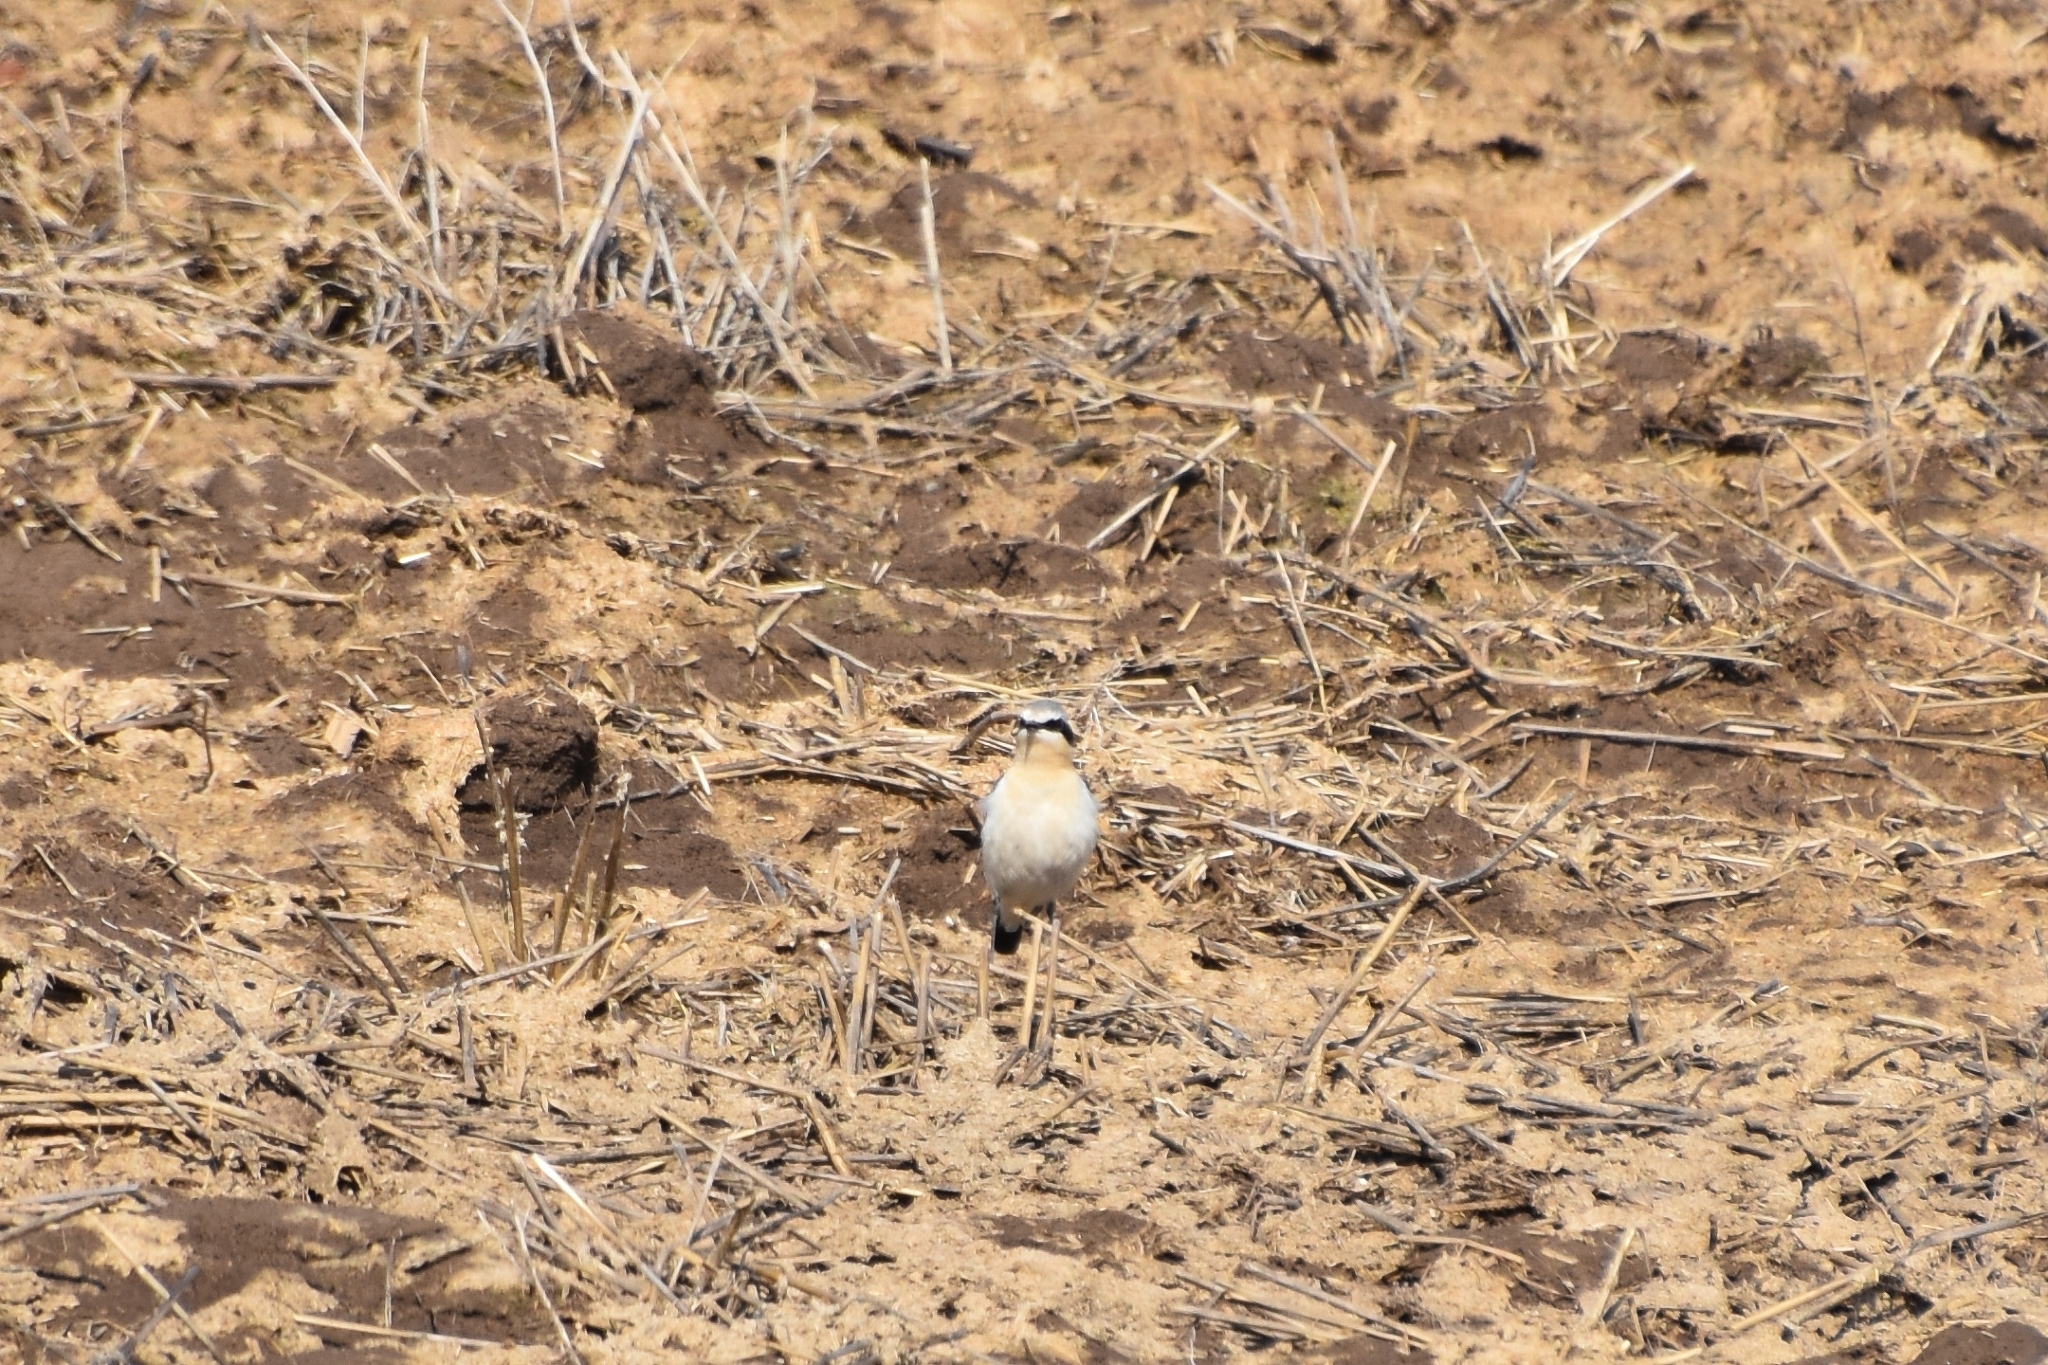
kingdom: Animalia
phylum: Chordata
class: Aves
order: Passeriformes
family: Muscicapidae
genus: Oenanthe
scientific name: Oenanthe oenanthe
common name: Northern wheatear
